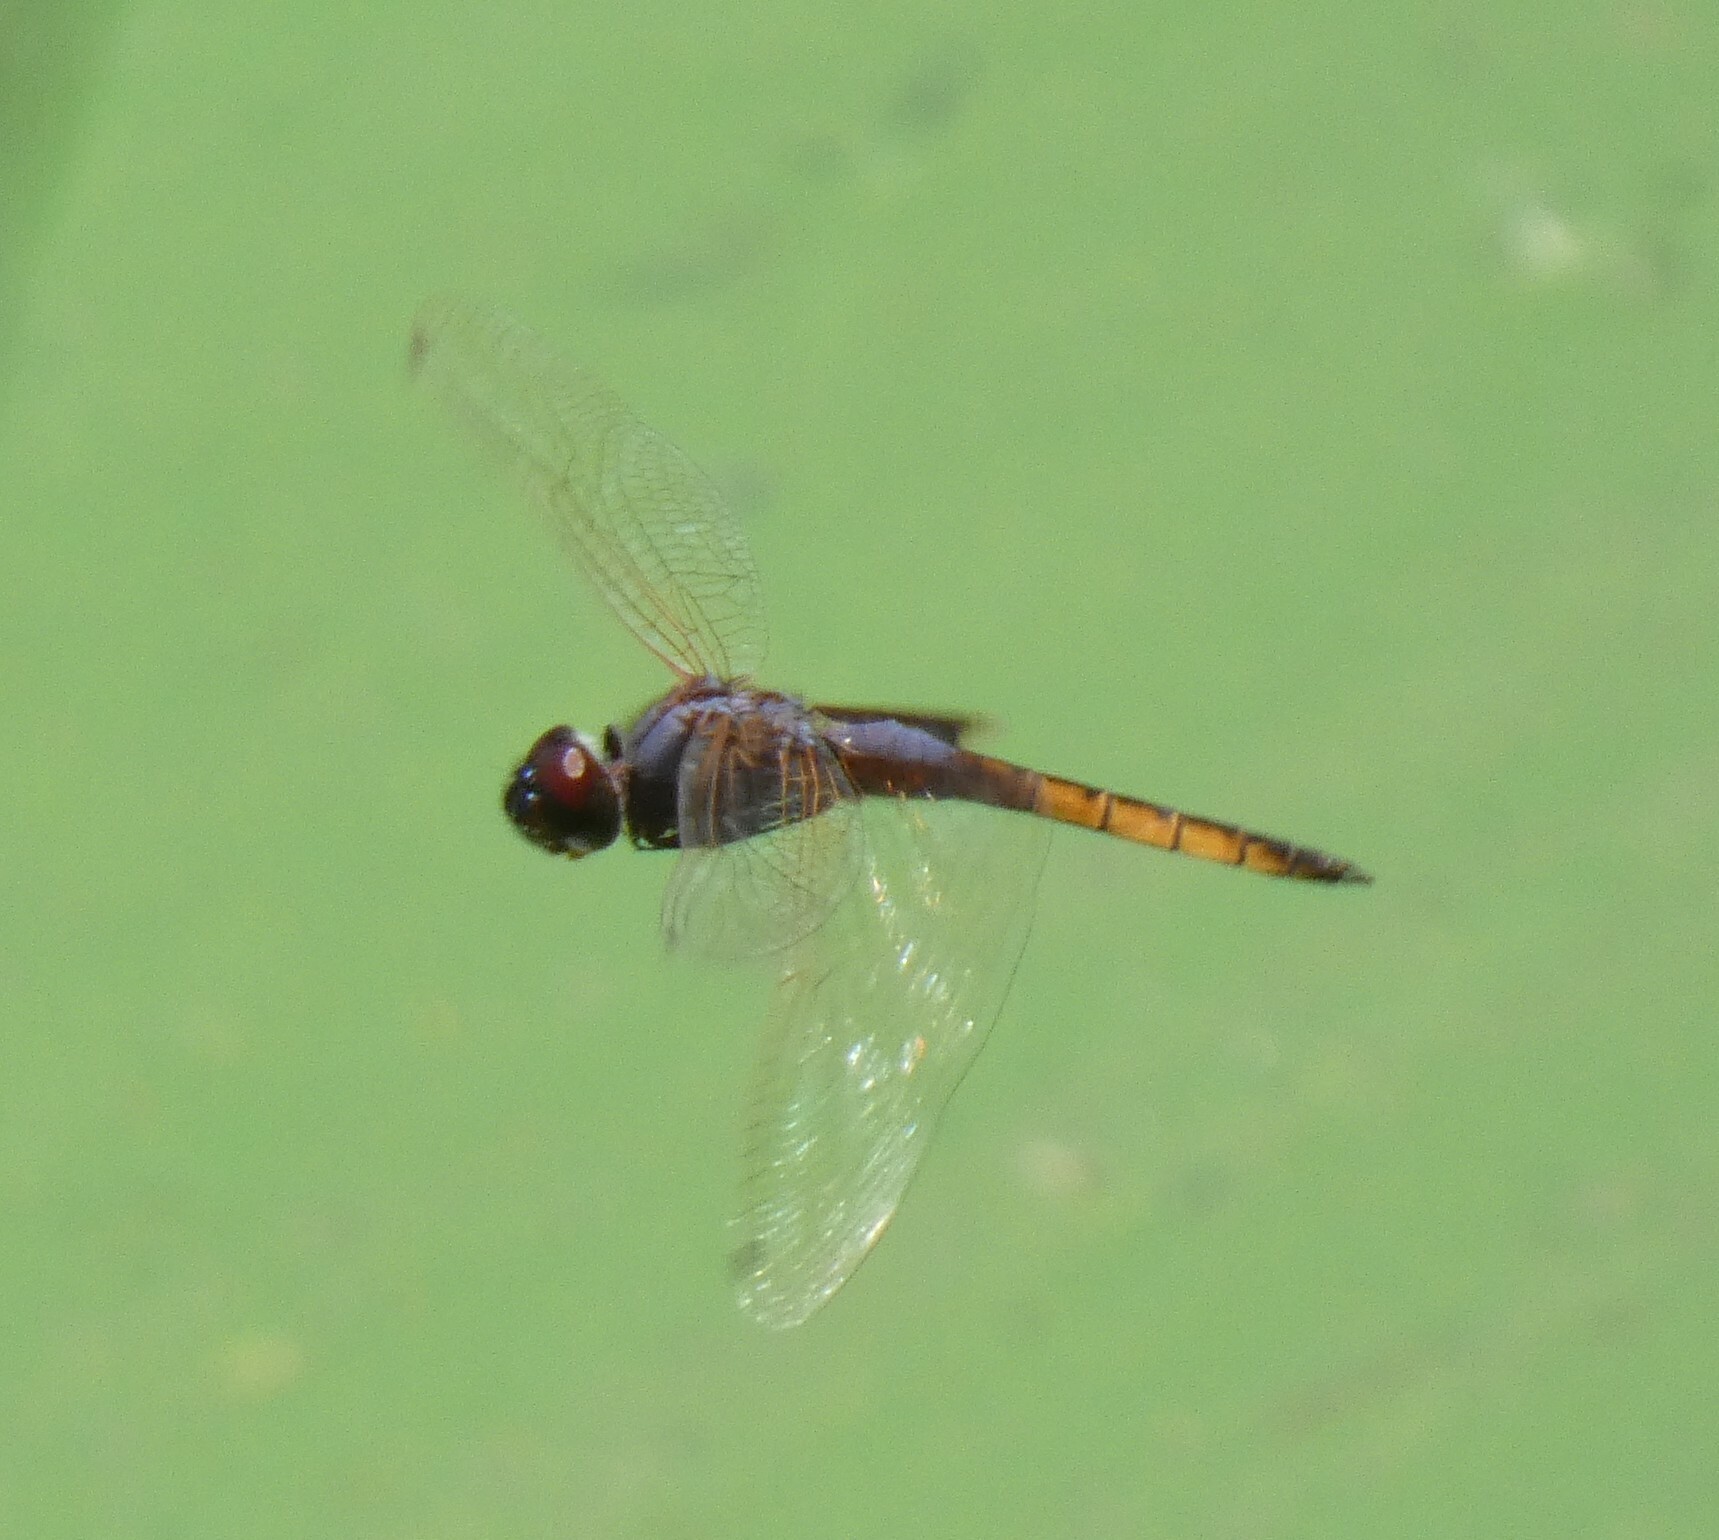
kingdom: Animalia
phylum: Arthropoda
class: Insecta
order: Odonata
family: Libellulidae
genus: Miathyria
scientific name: Miathyria marcella
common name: Hyacinth glider
